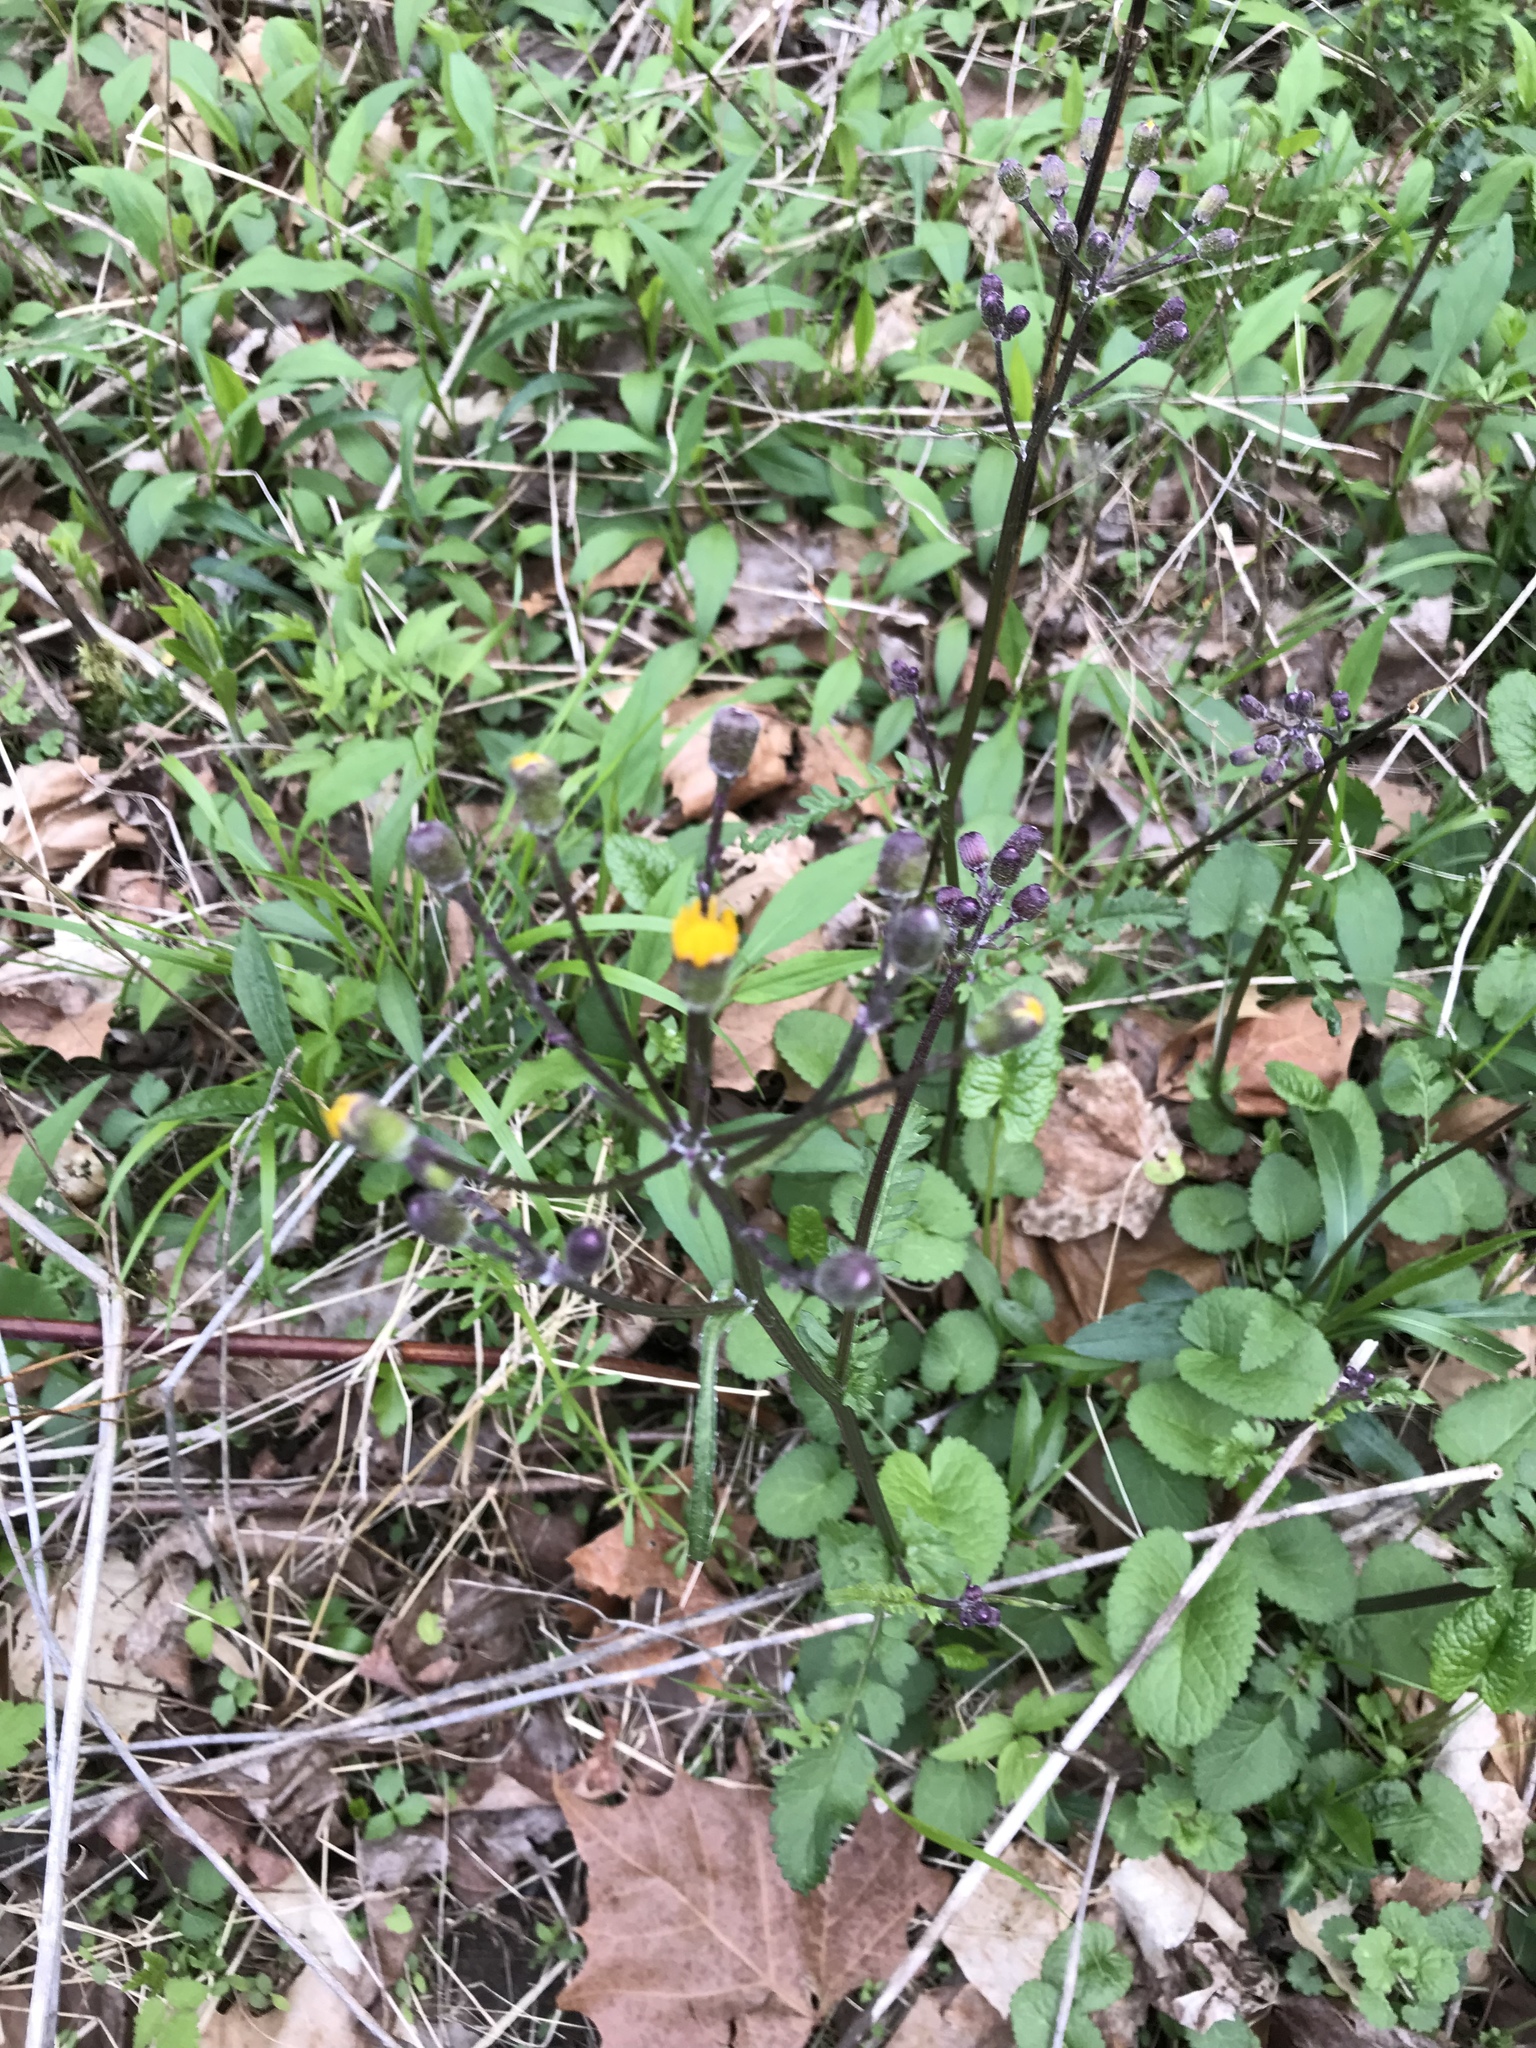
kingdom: Plantae
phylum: Tracheophyta
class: Magnoliopsida
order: Asterales
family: Asteraceae
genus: Packera
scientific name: Packera aurea
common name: Golden groundsel
